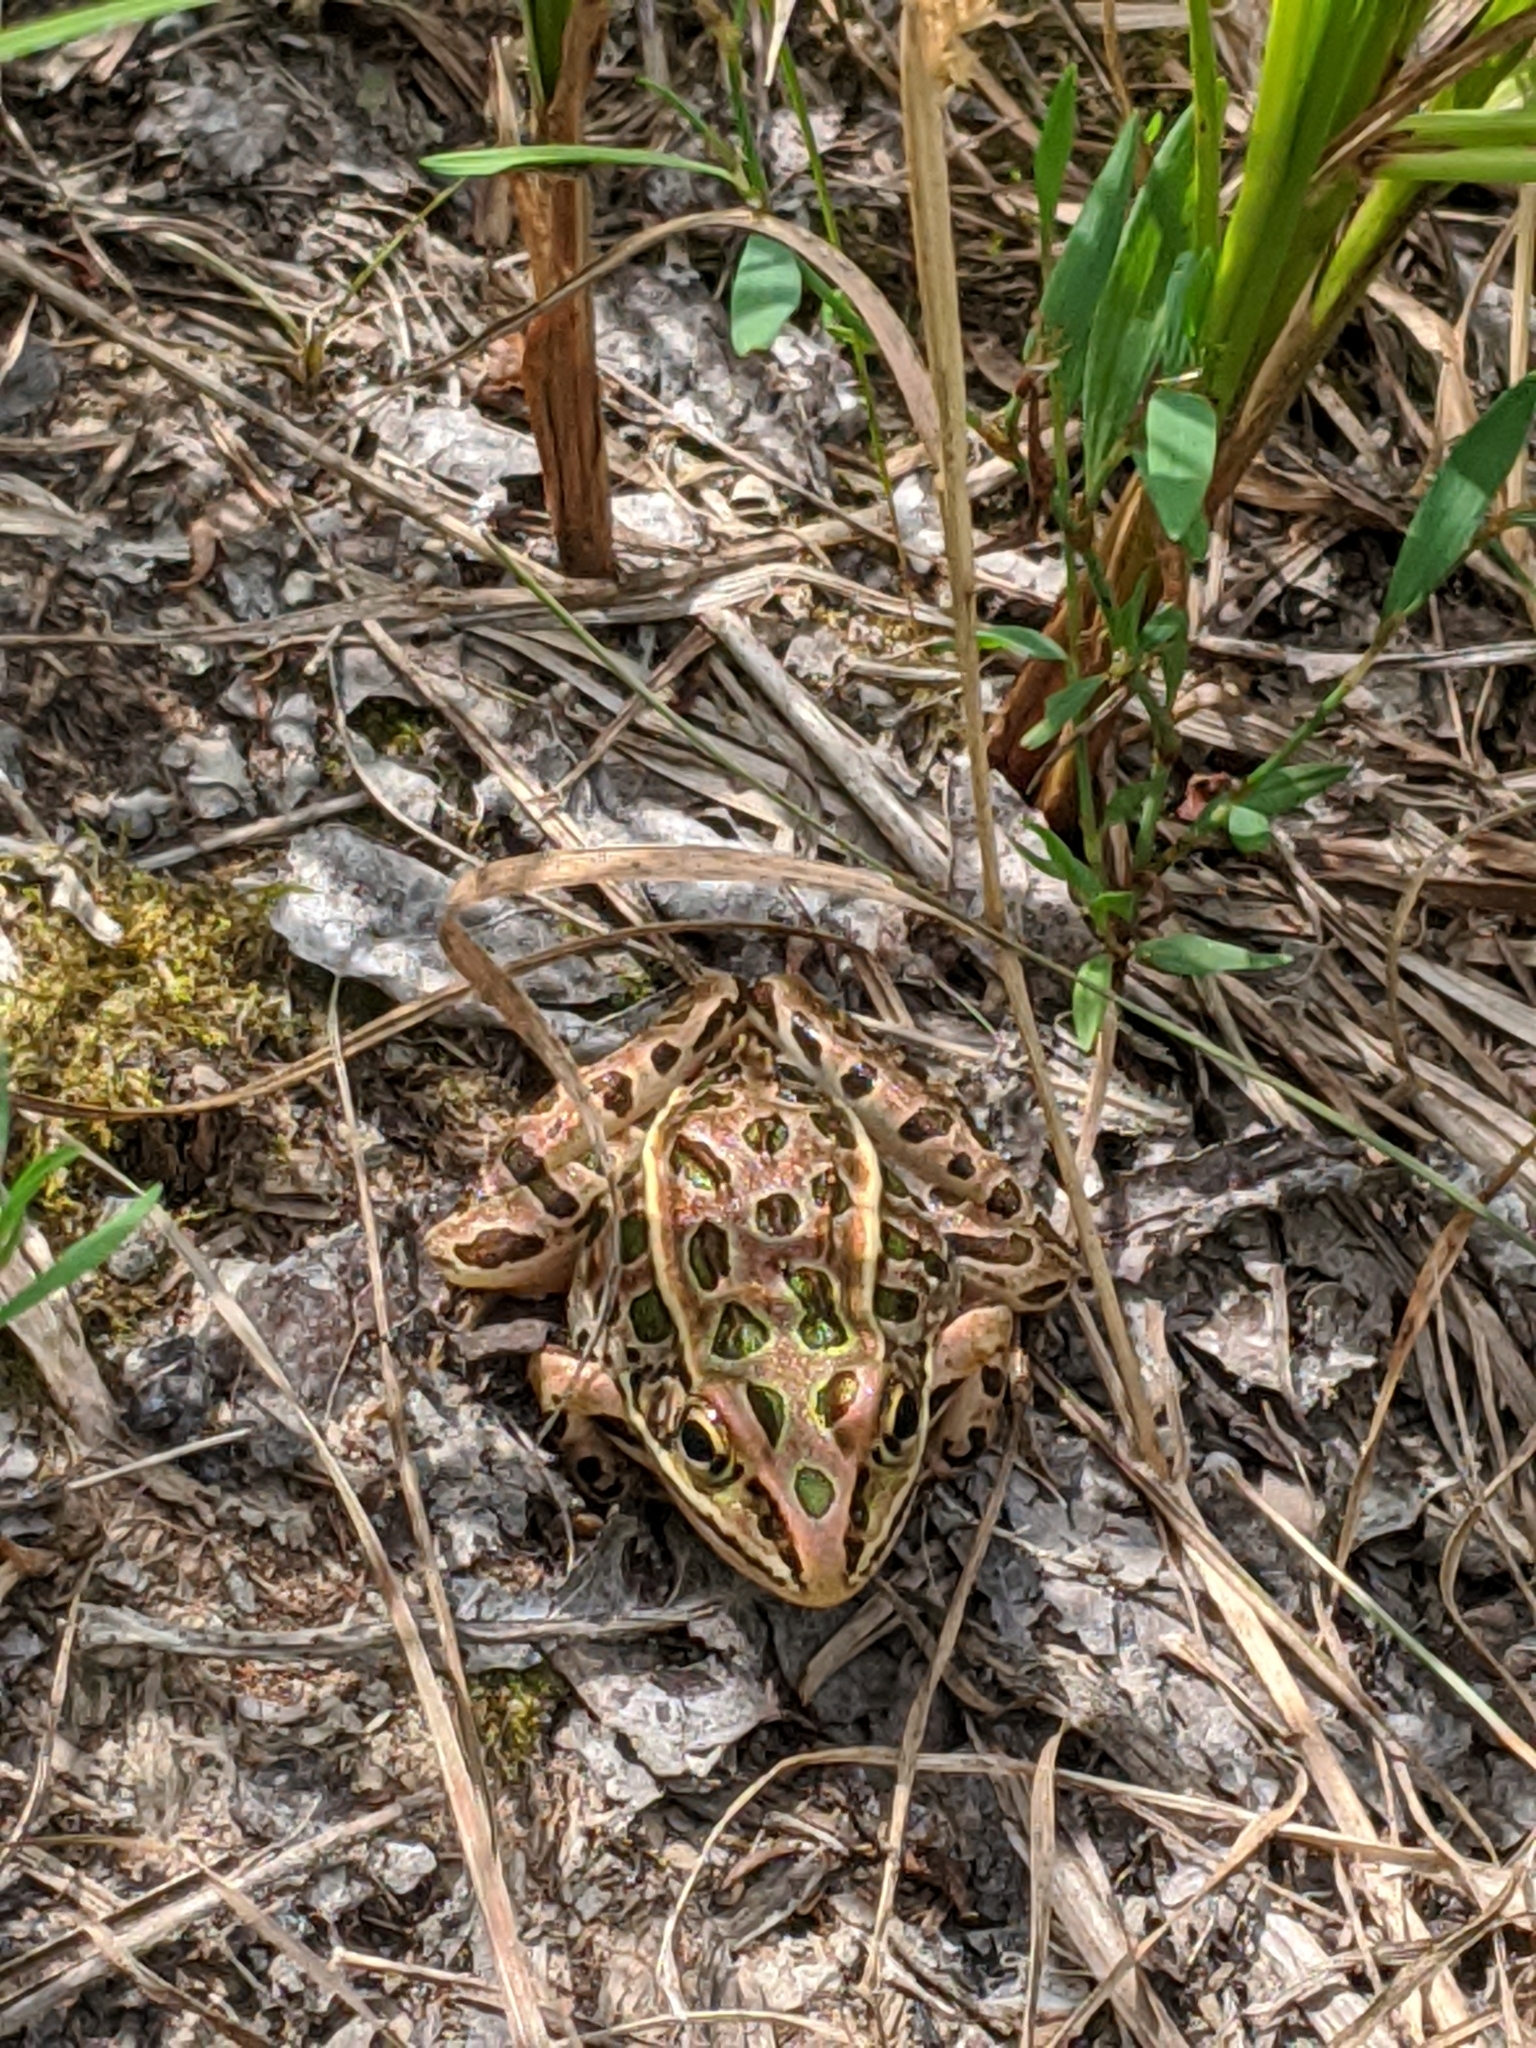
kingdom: Animalia
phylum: Chordata
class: Amphibia
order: Anura
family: Ranidae
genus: Lithobates
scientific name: Lithobates pipiens
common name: Northern leopard frog
